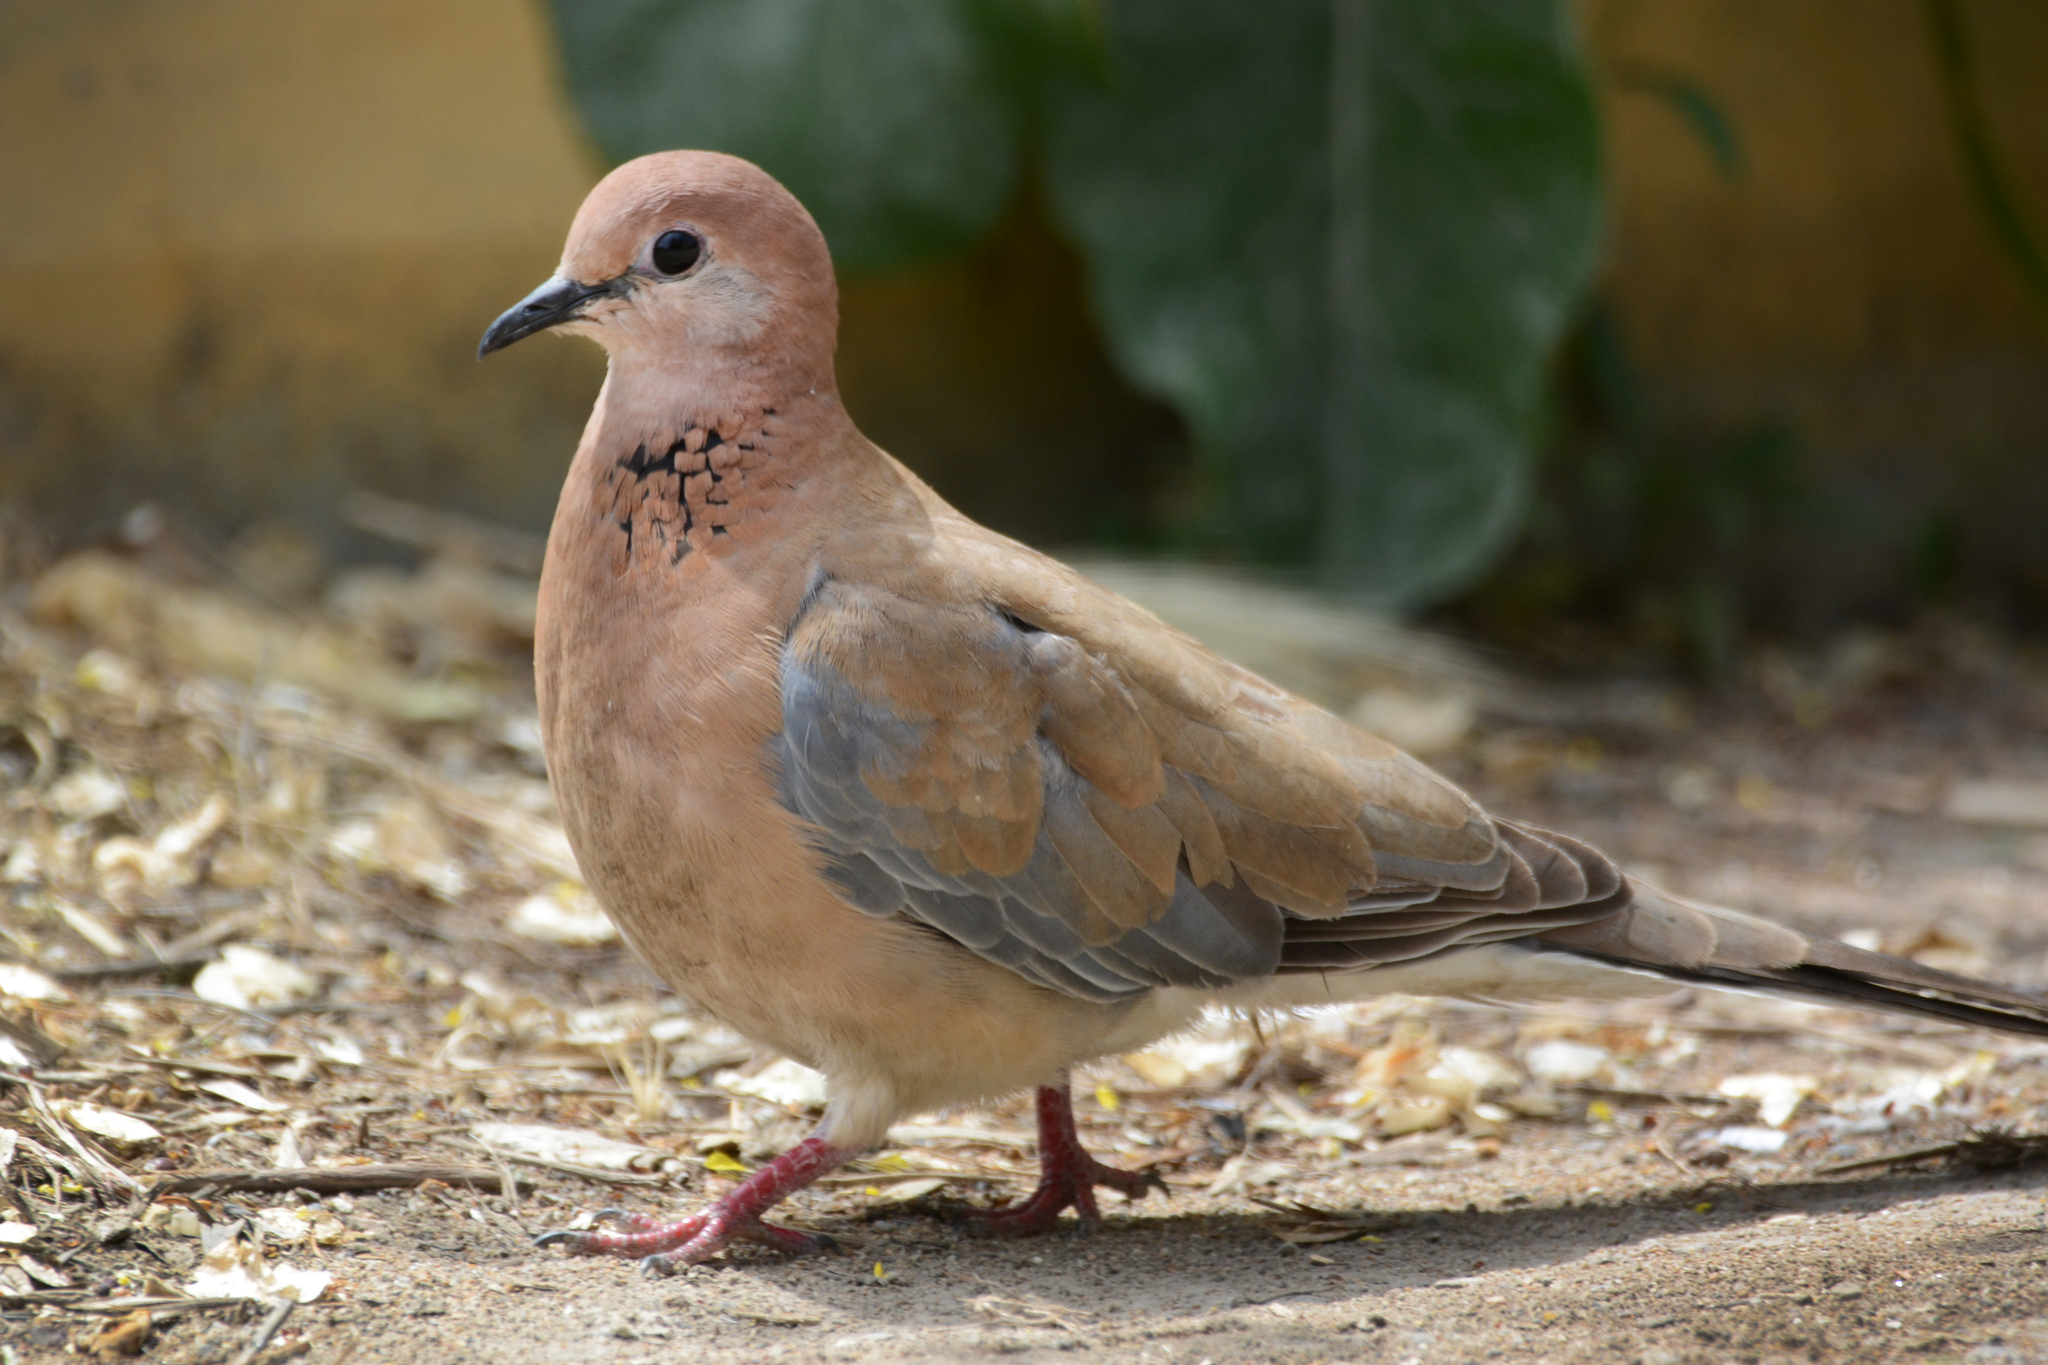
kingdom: Animalia
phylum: Chordata
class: Aves
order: Columbiformes
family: Columbidae
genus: Spilopelia
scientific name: Spilopelia senegalensis
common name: Laughing dove
